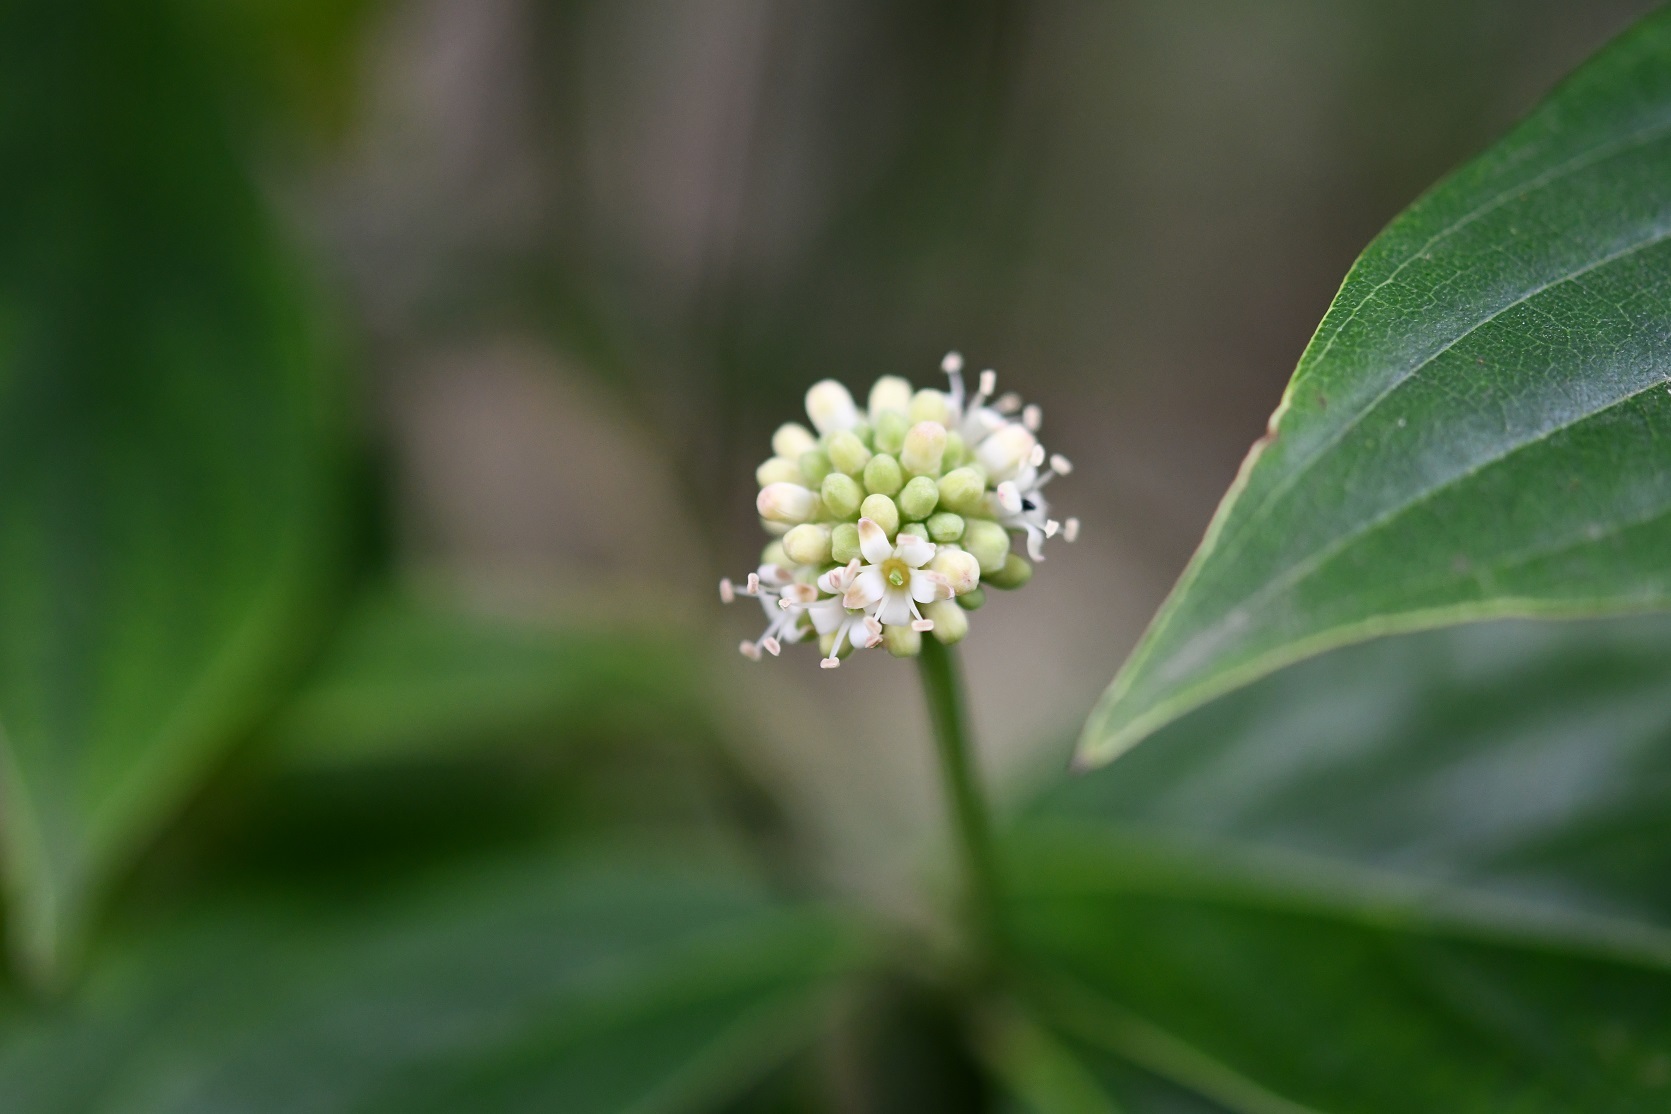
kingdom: Plantae
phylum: Tracheophyta
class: Magnoliopsida
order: Cornales
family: Cornaceae
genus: Cornus
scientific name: Cornus disciflora
